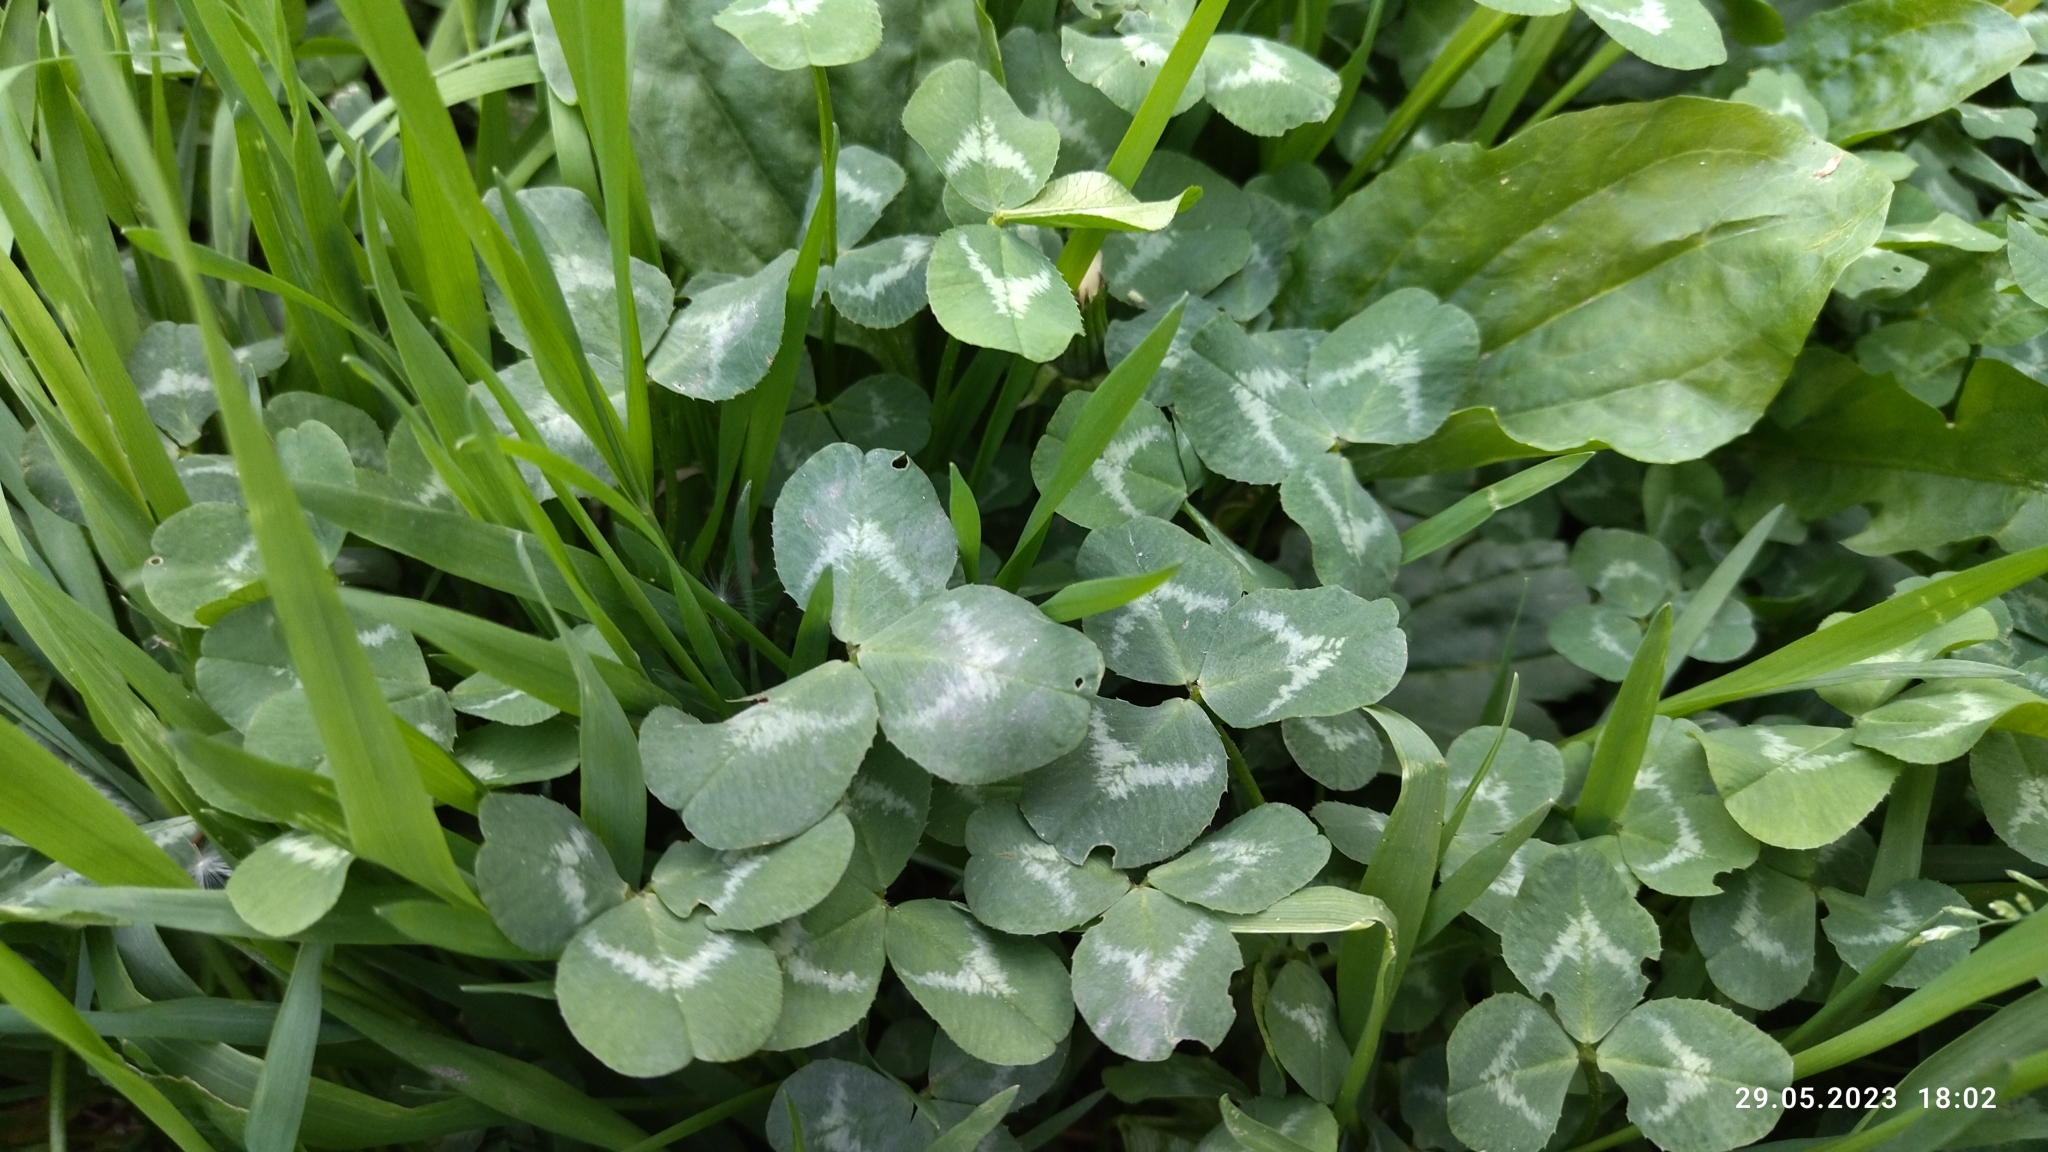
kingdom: Plantae
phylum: Tracheophyta
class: Magnoliopsida
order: Fabales
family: Fabaceae
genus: Trifolium
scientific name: Trifolium repens
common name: White clover
